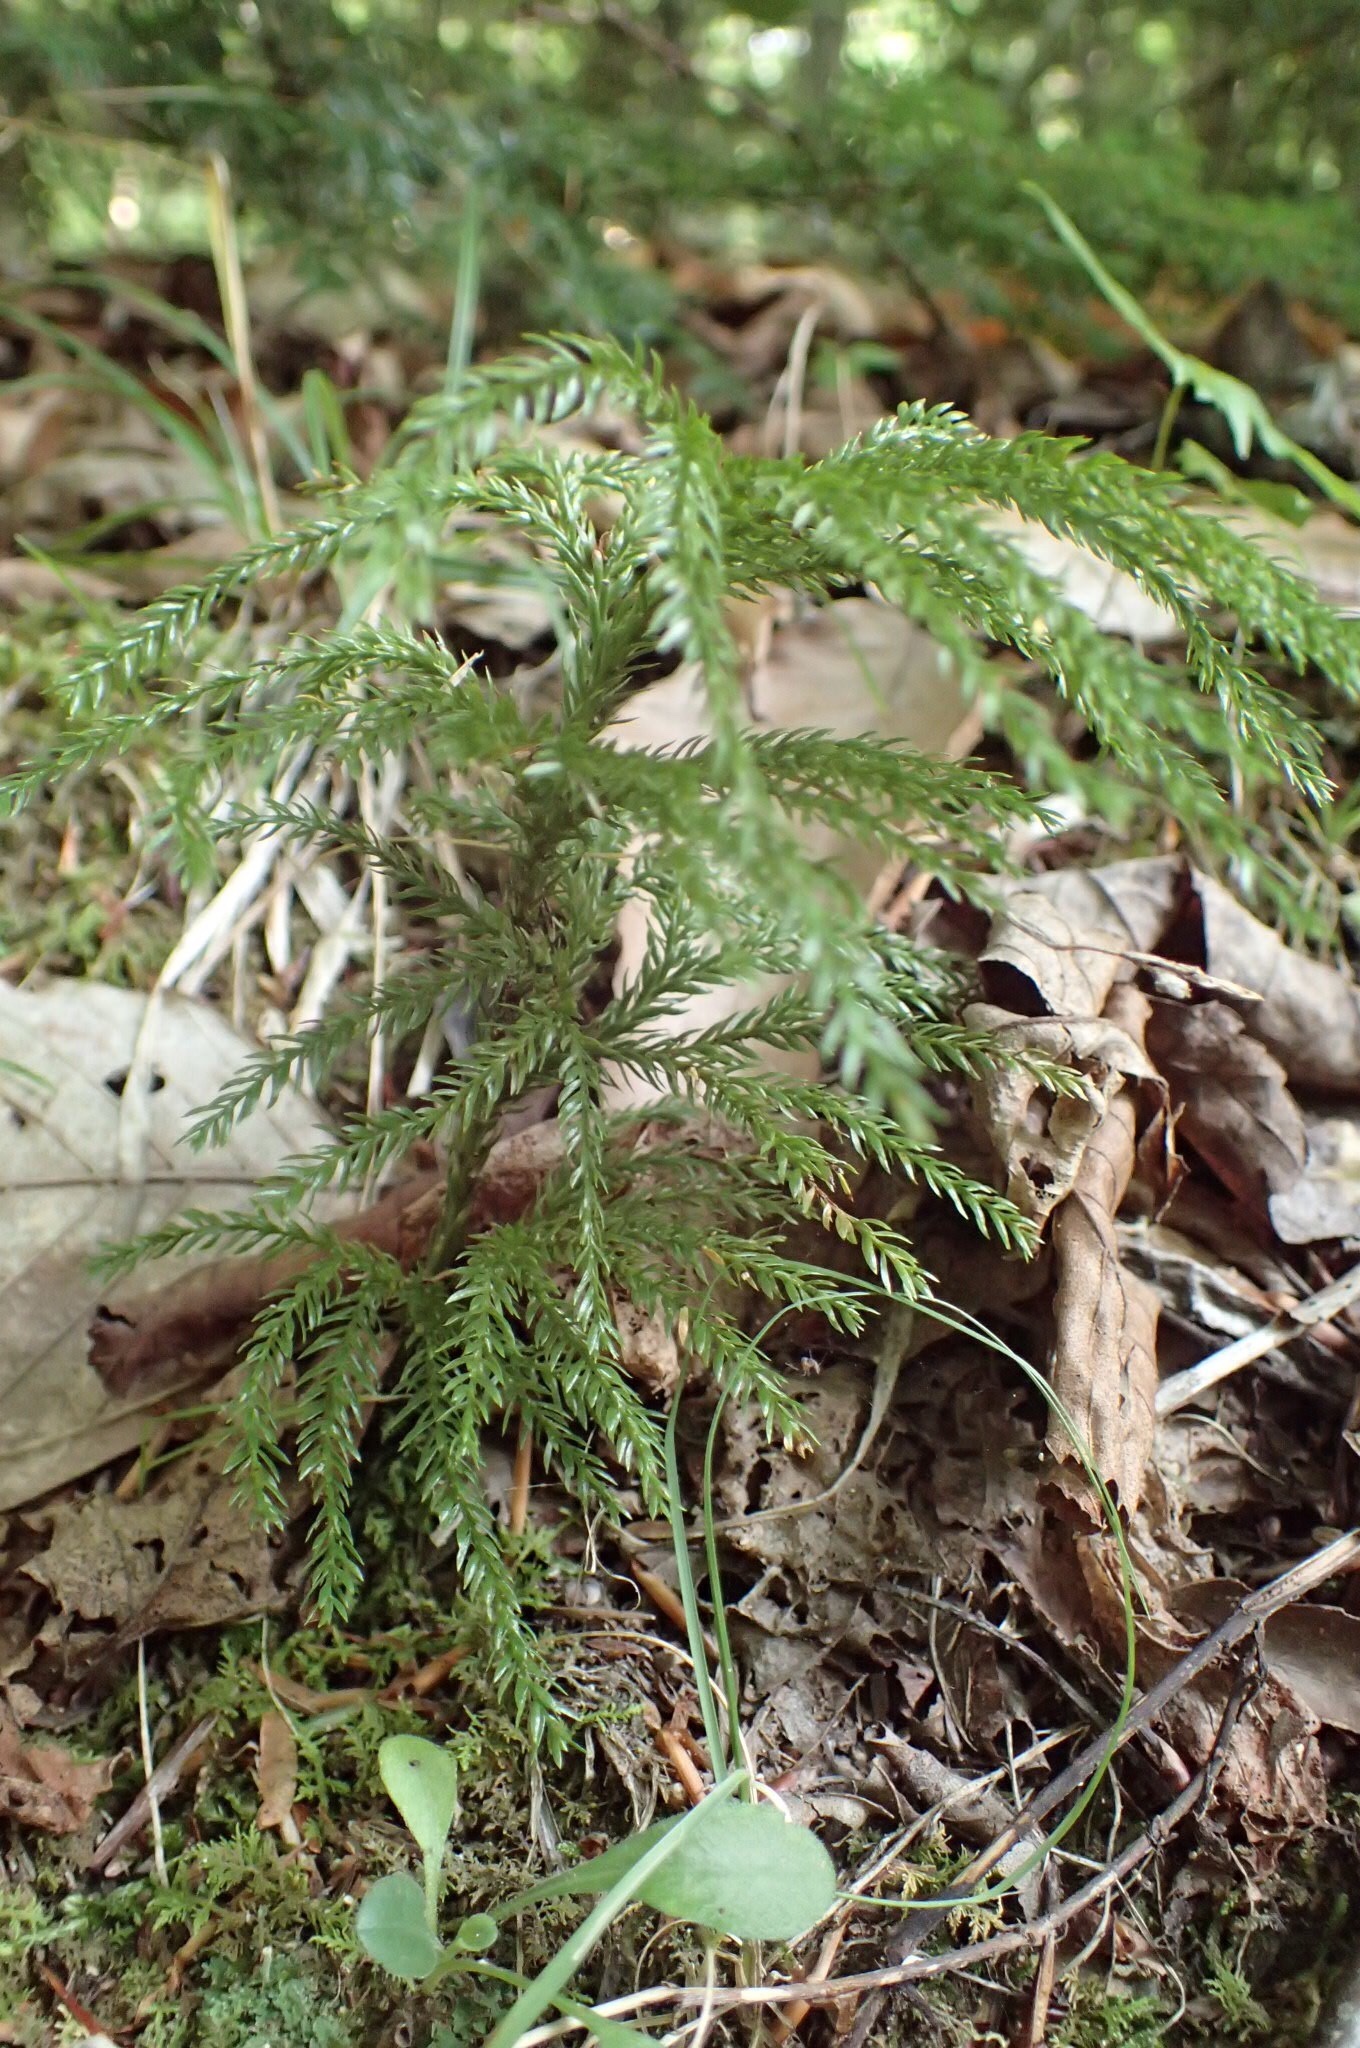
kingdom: Plantae
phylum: Tracheophyta
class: Lycopodiopsida
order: Lycopodiales
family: Lycopodiaceae
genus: Dendrolycopodium
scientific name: Dendrolycopodium obscurum
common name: Common ground-pine
